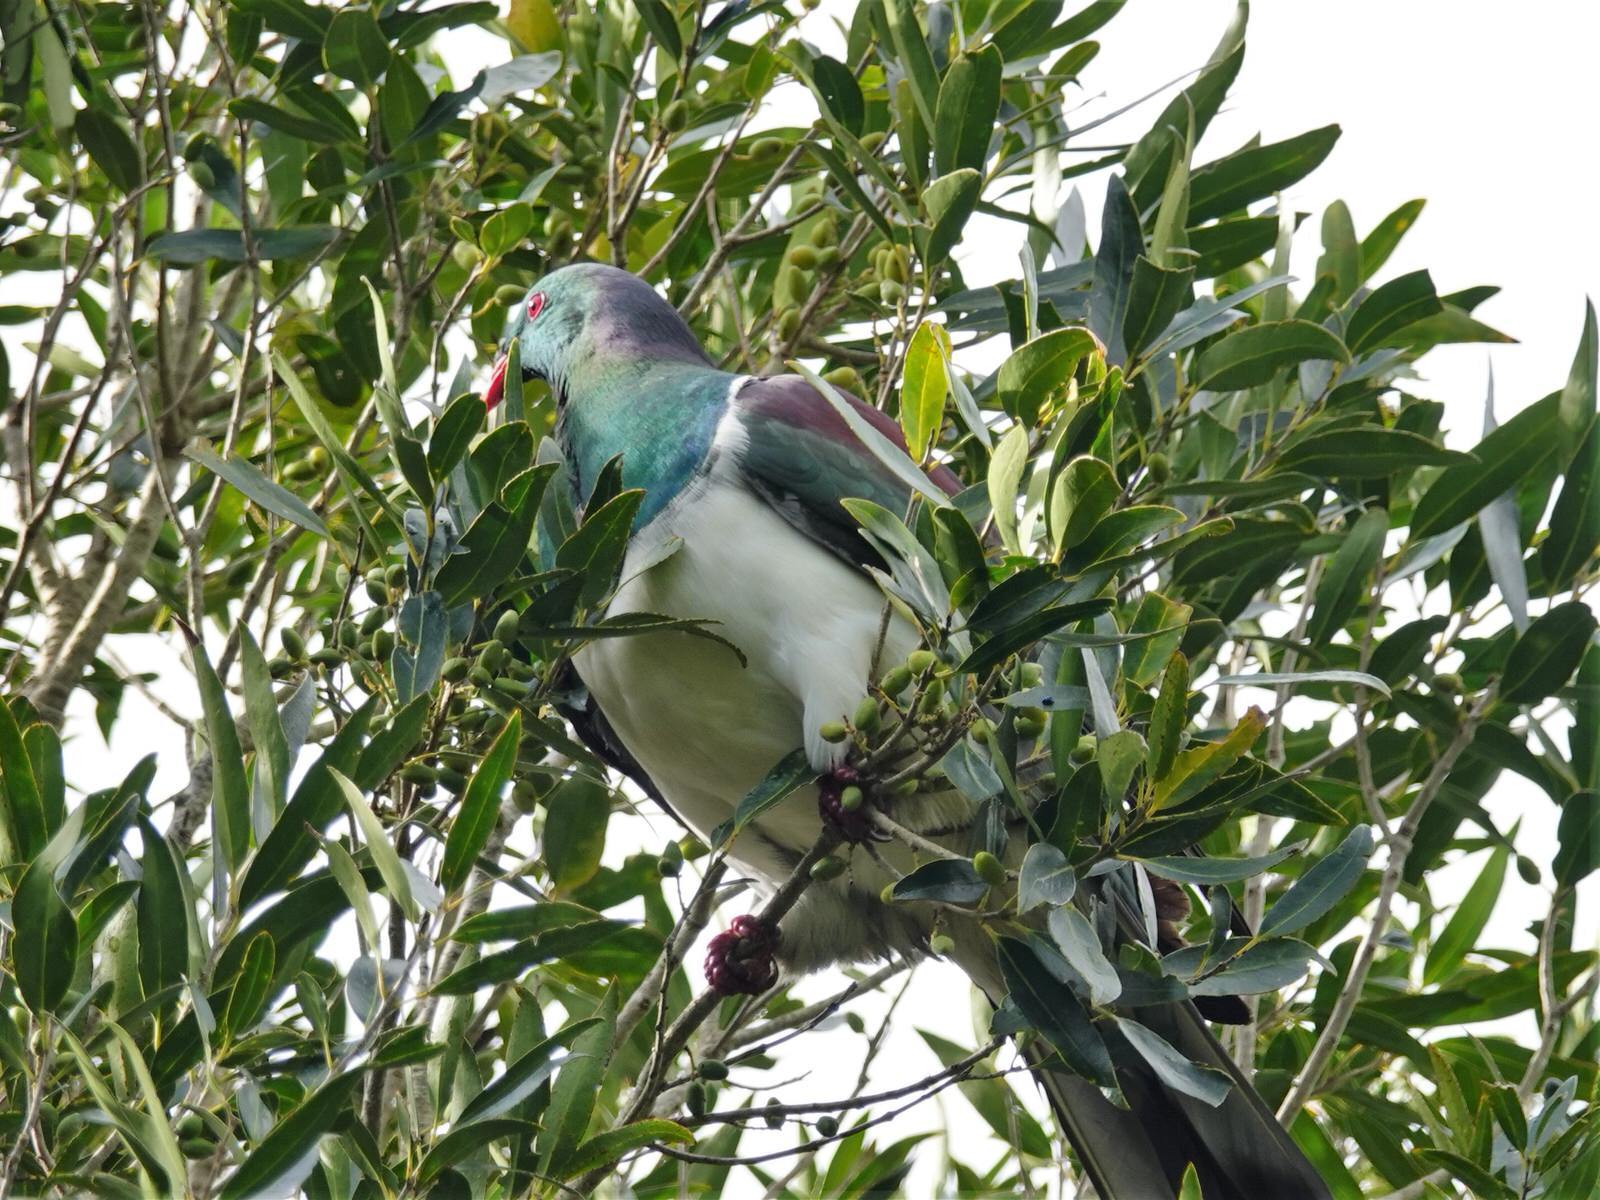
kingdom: Animalia
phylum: Chordata
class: Aves
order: Columbiformes
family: Columbidae
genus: Hemiphaga
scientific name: Hemiphaga novaeseelandiae
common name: New zealand pigeon
